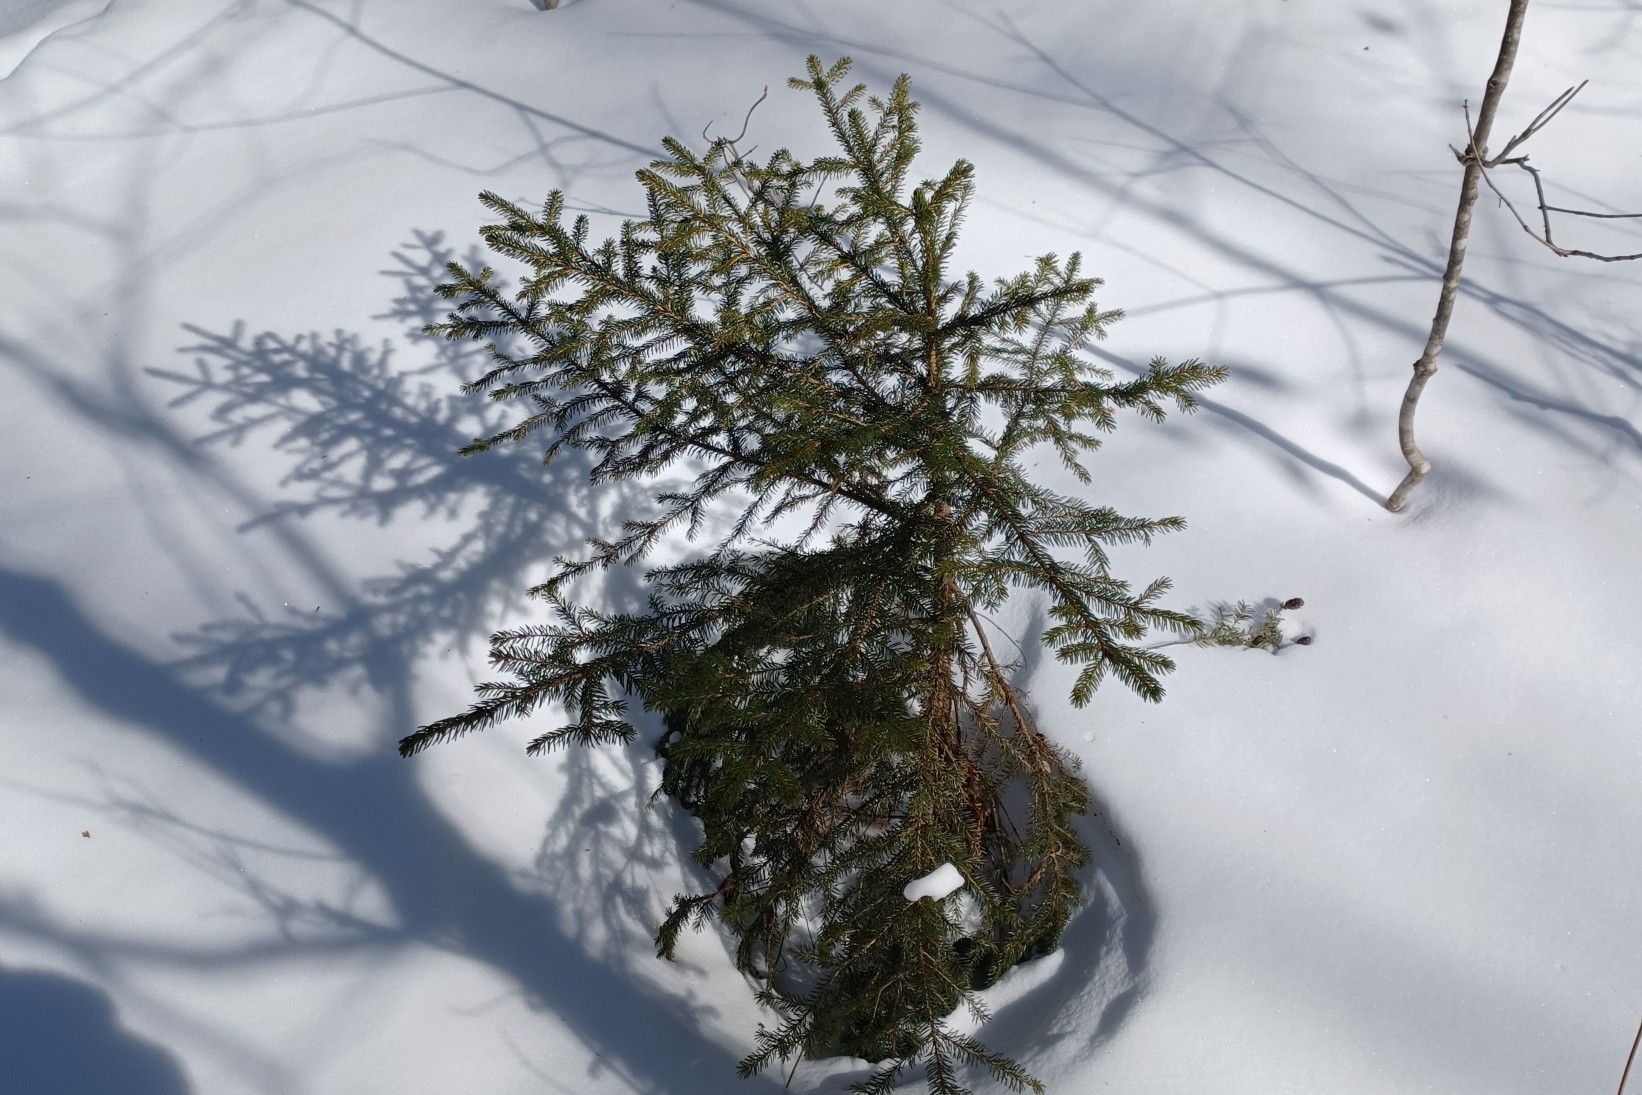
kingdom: Plantae
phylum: Tracheophyta
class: Pinopsida
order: Pinales
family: Pinaceae
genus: Picea
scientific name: Picea rubens
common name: Red spruce
